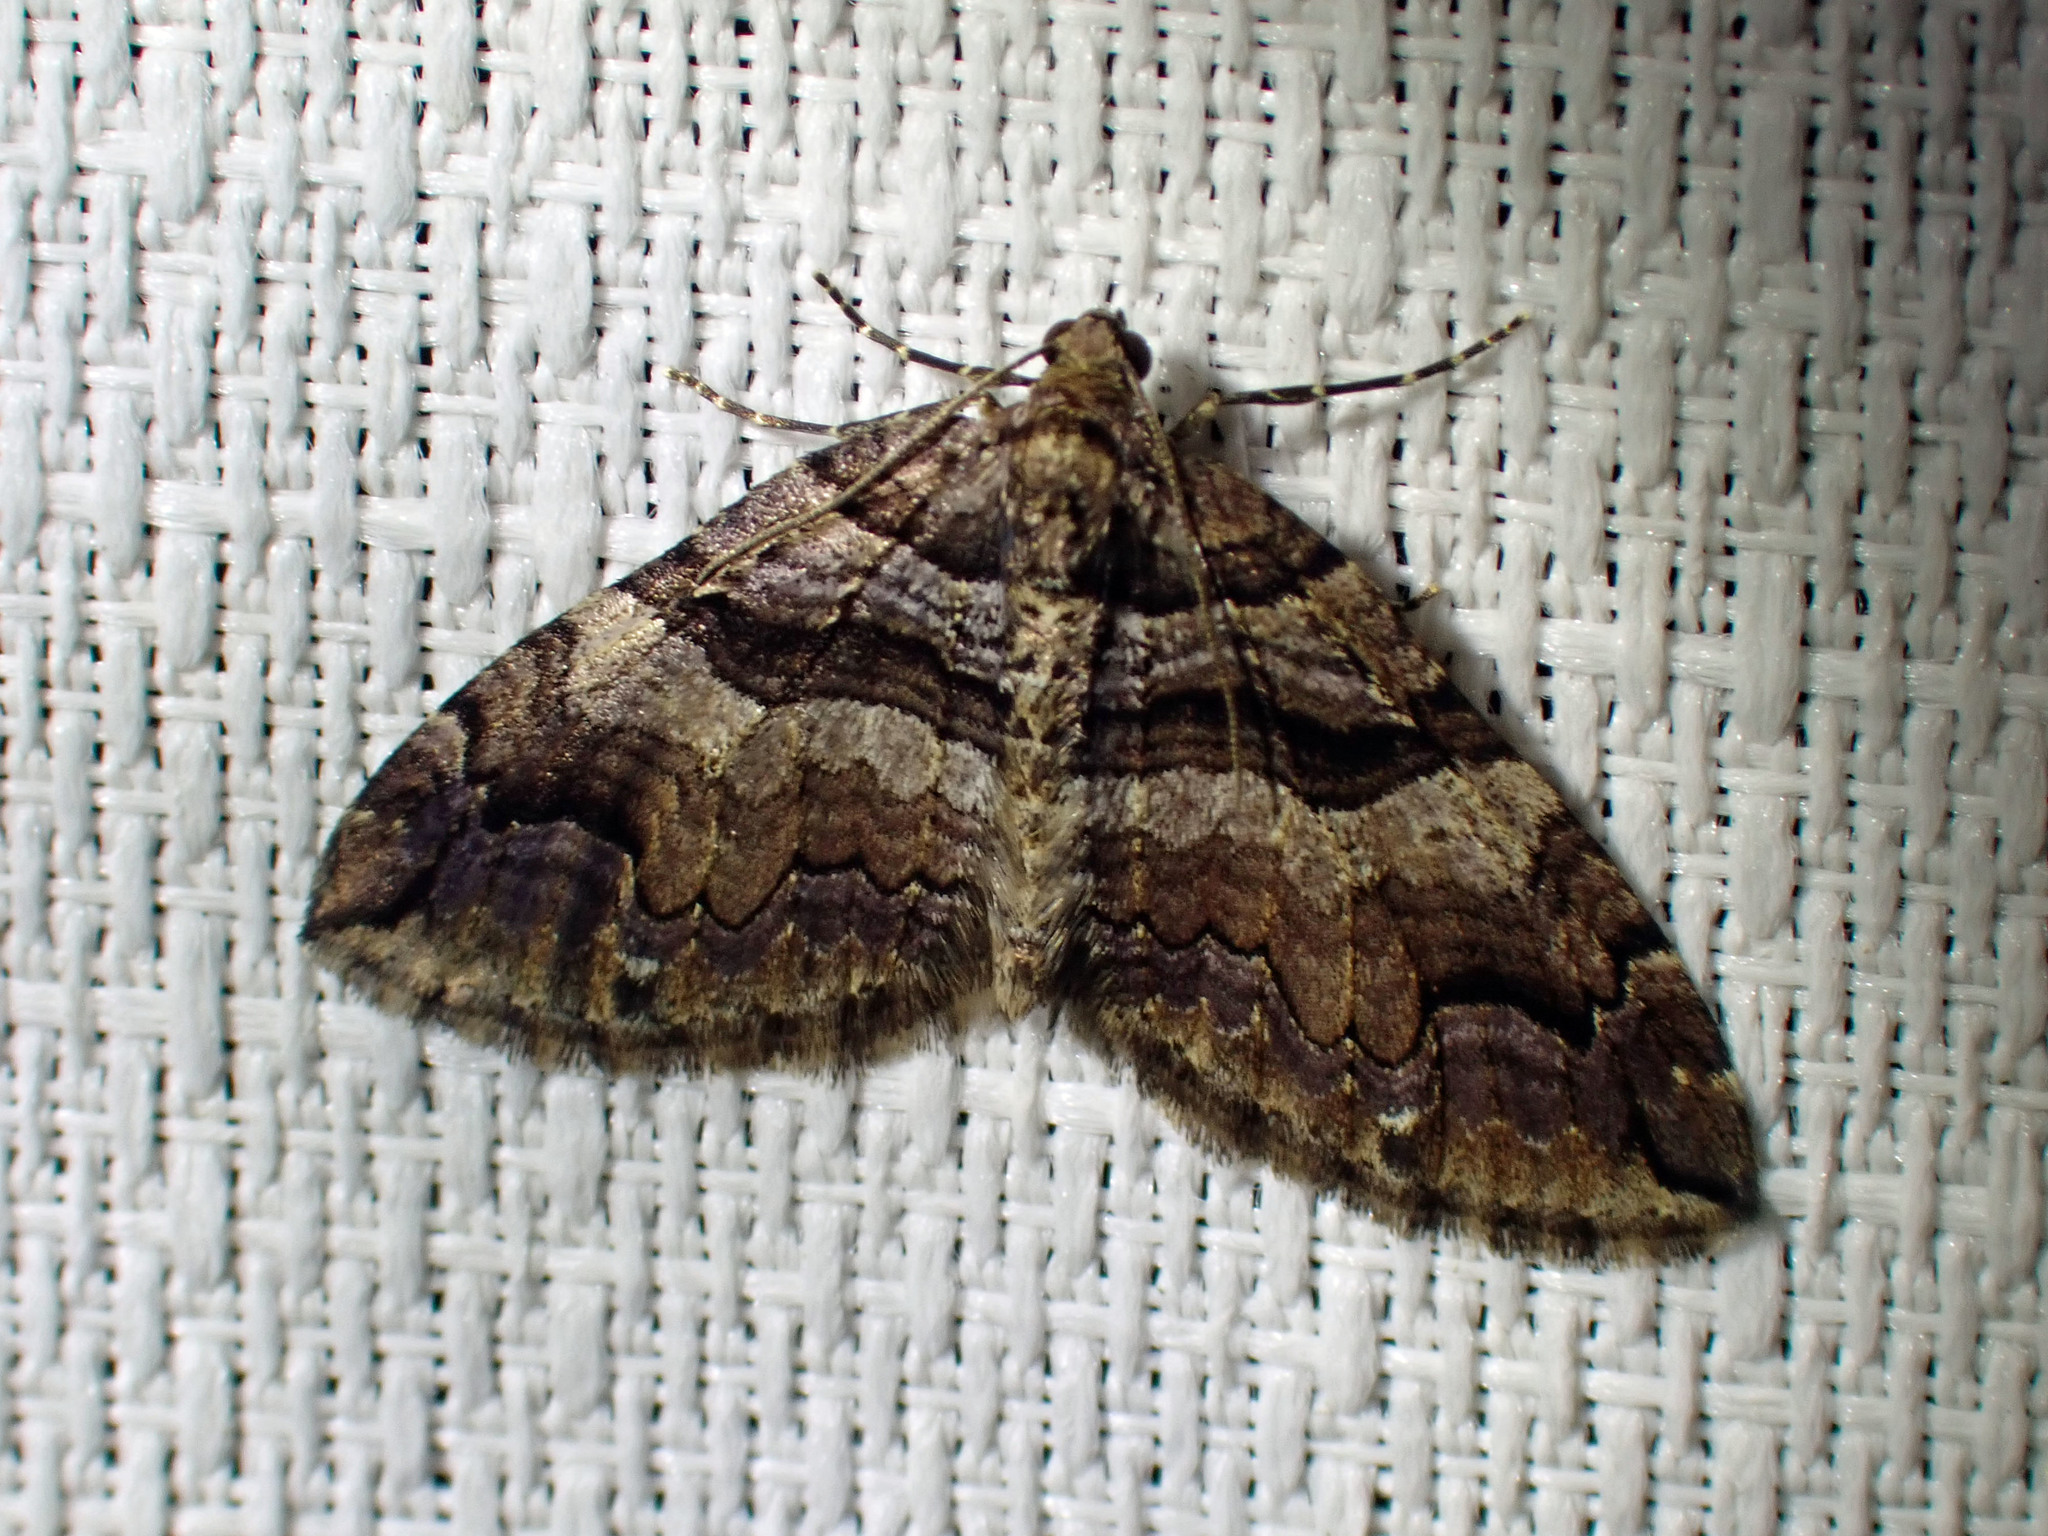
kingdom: Animalia
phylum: Arthropoda
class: Insecta
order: Lepidoptera
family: Geometridae
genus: Anticlea
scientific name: Anticlea vasiliata
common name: Variable carpet
